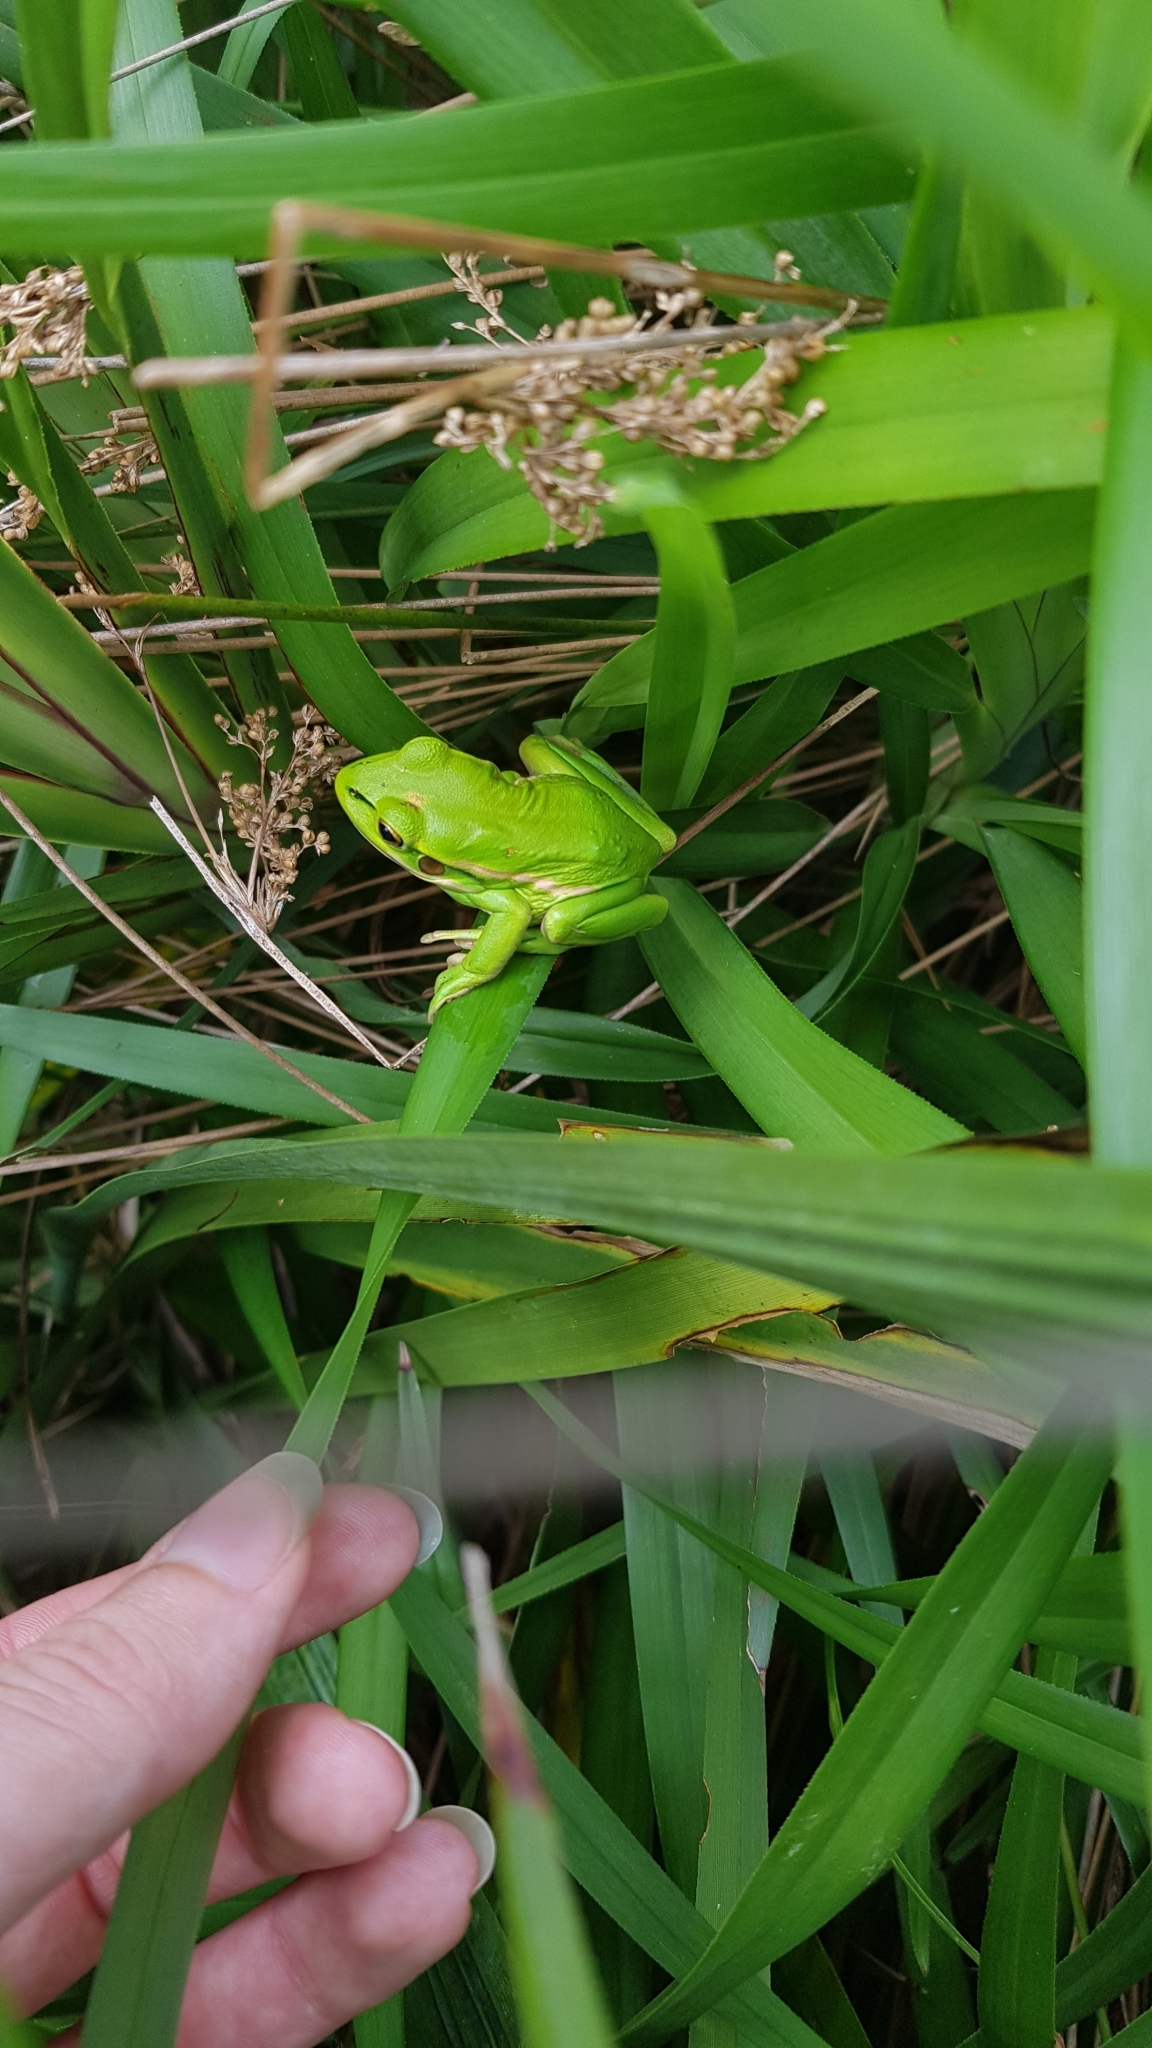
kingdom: Animalia
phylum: Chordata
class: Amphibia
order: Anura
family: Pelodryadidae
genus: Ranoidea
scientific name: Ranoidea aurea
